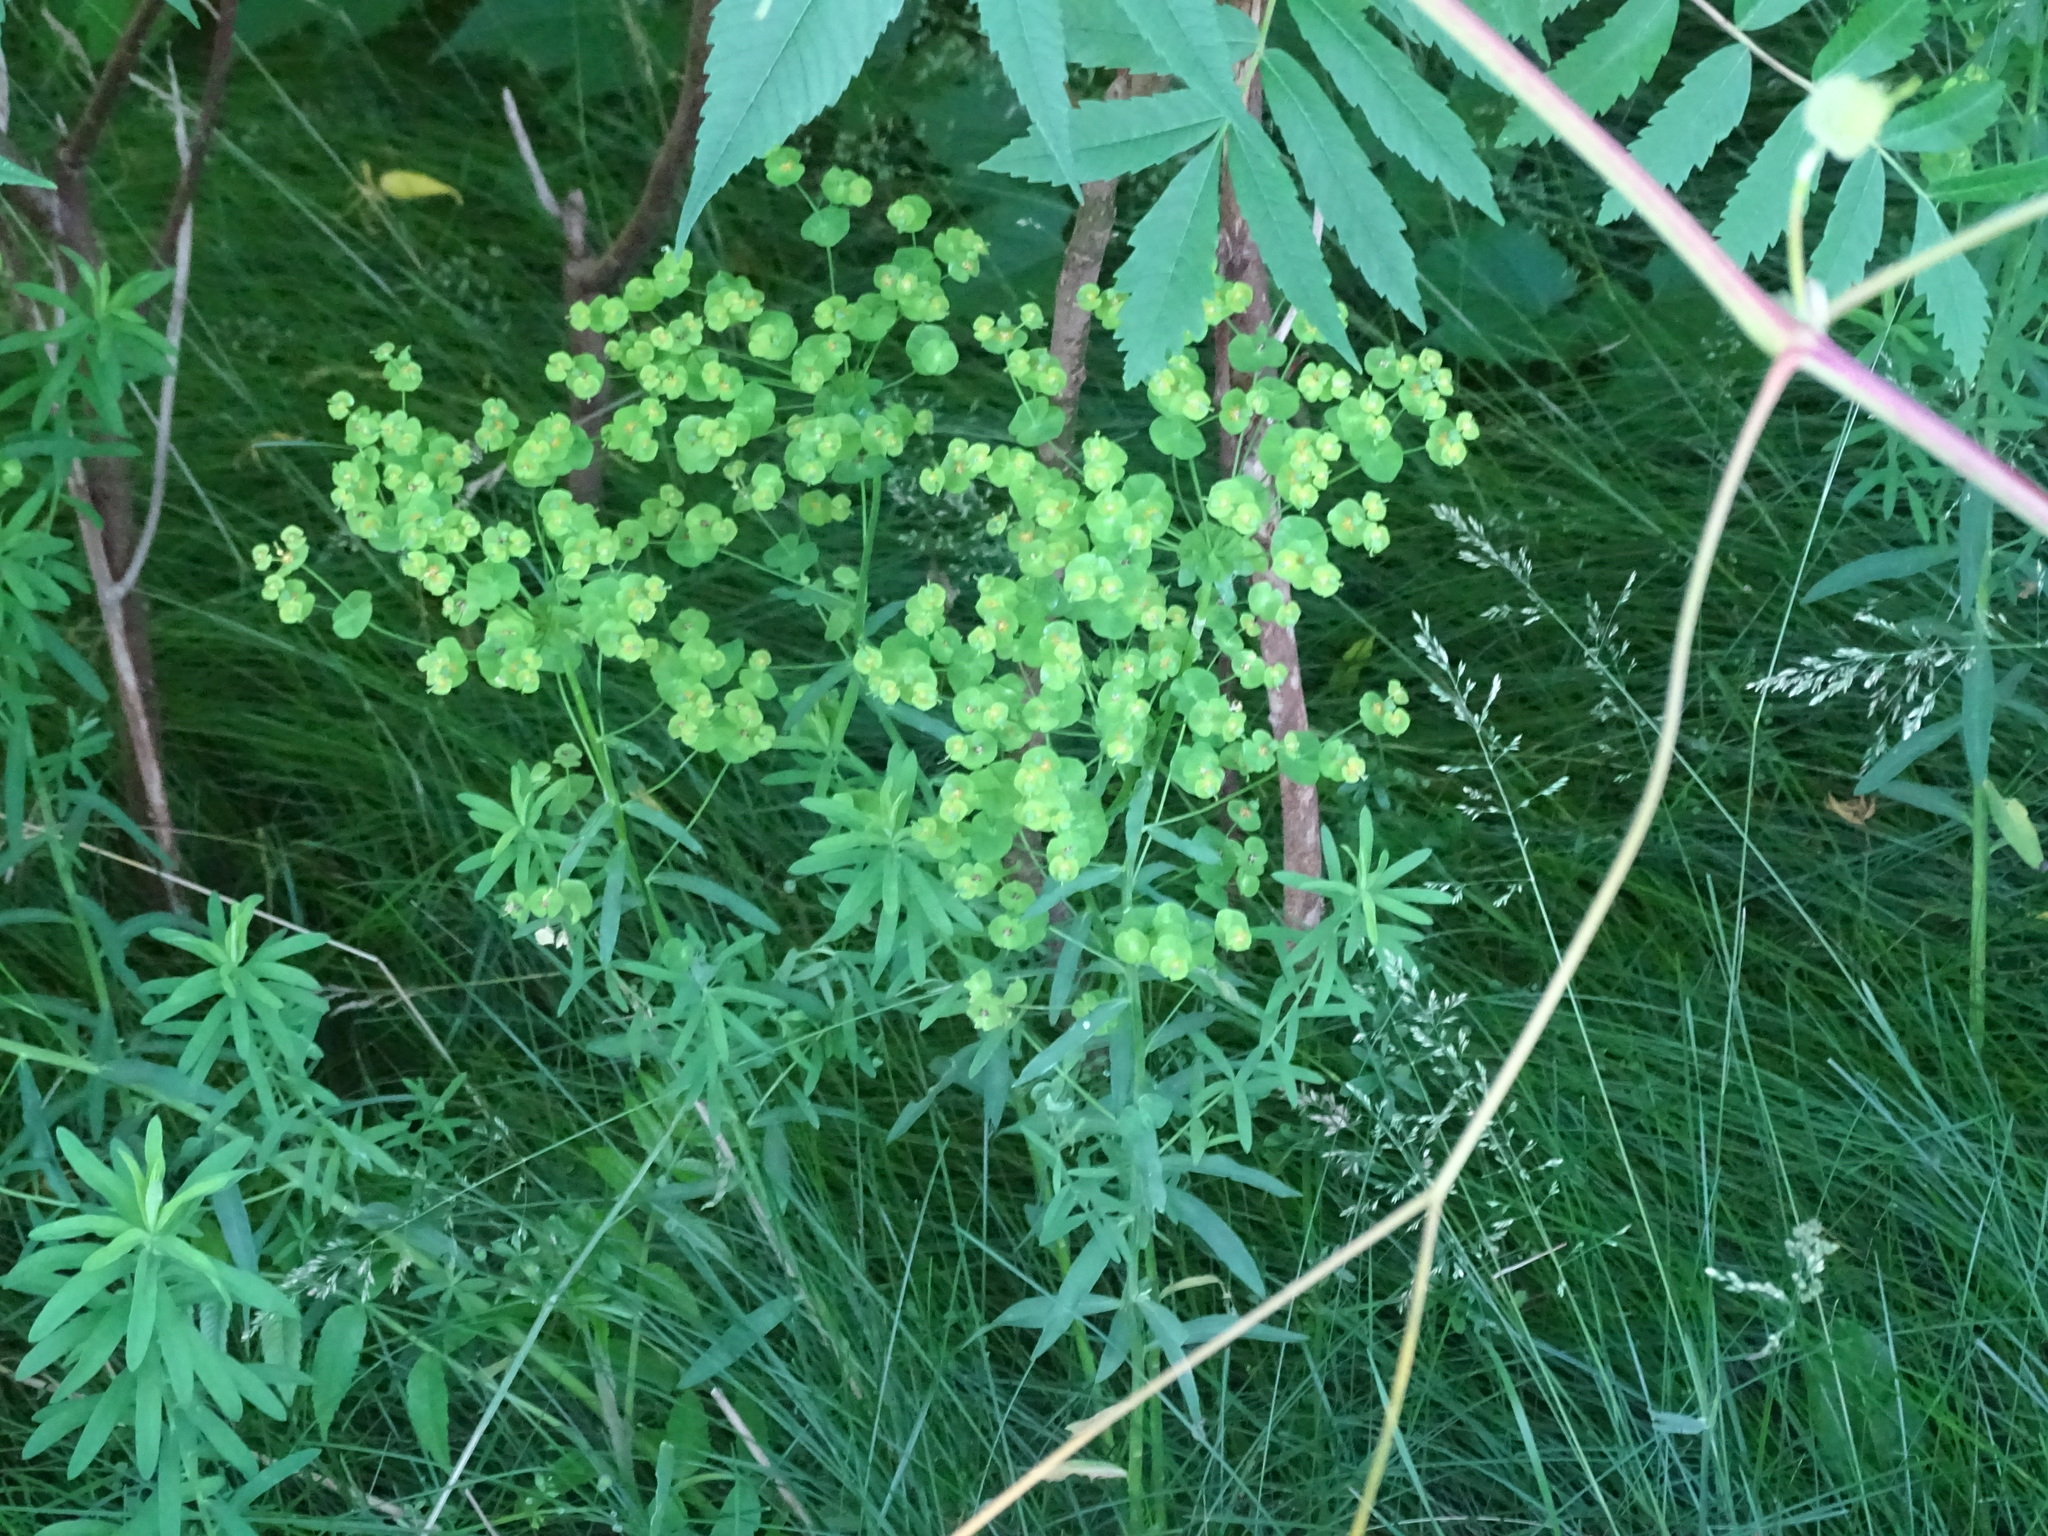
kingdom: Plantae
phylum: Tracheophyta
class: Magnoliopsida
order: Malpighiales
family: Euphorbiaceae
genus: Euphorbia
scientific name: Euphorbia virgata
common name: Leafy spurge
